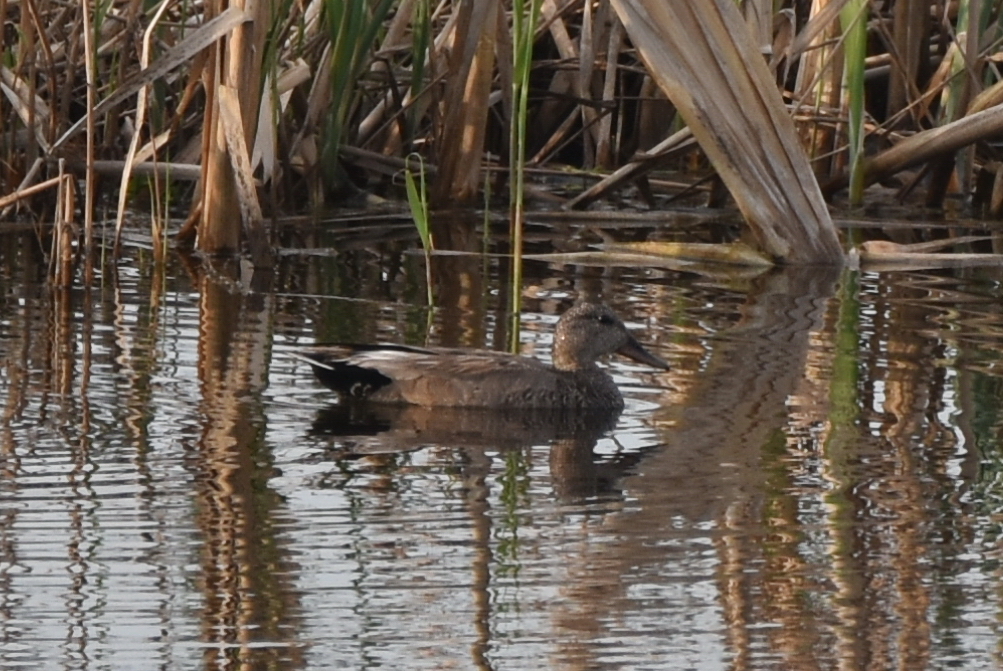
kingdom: Animalia
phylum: Chordata
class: Aves
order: Anseriformes
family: Anatidae
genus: Mareca
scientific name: Mareca strepera
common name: Gadwall
